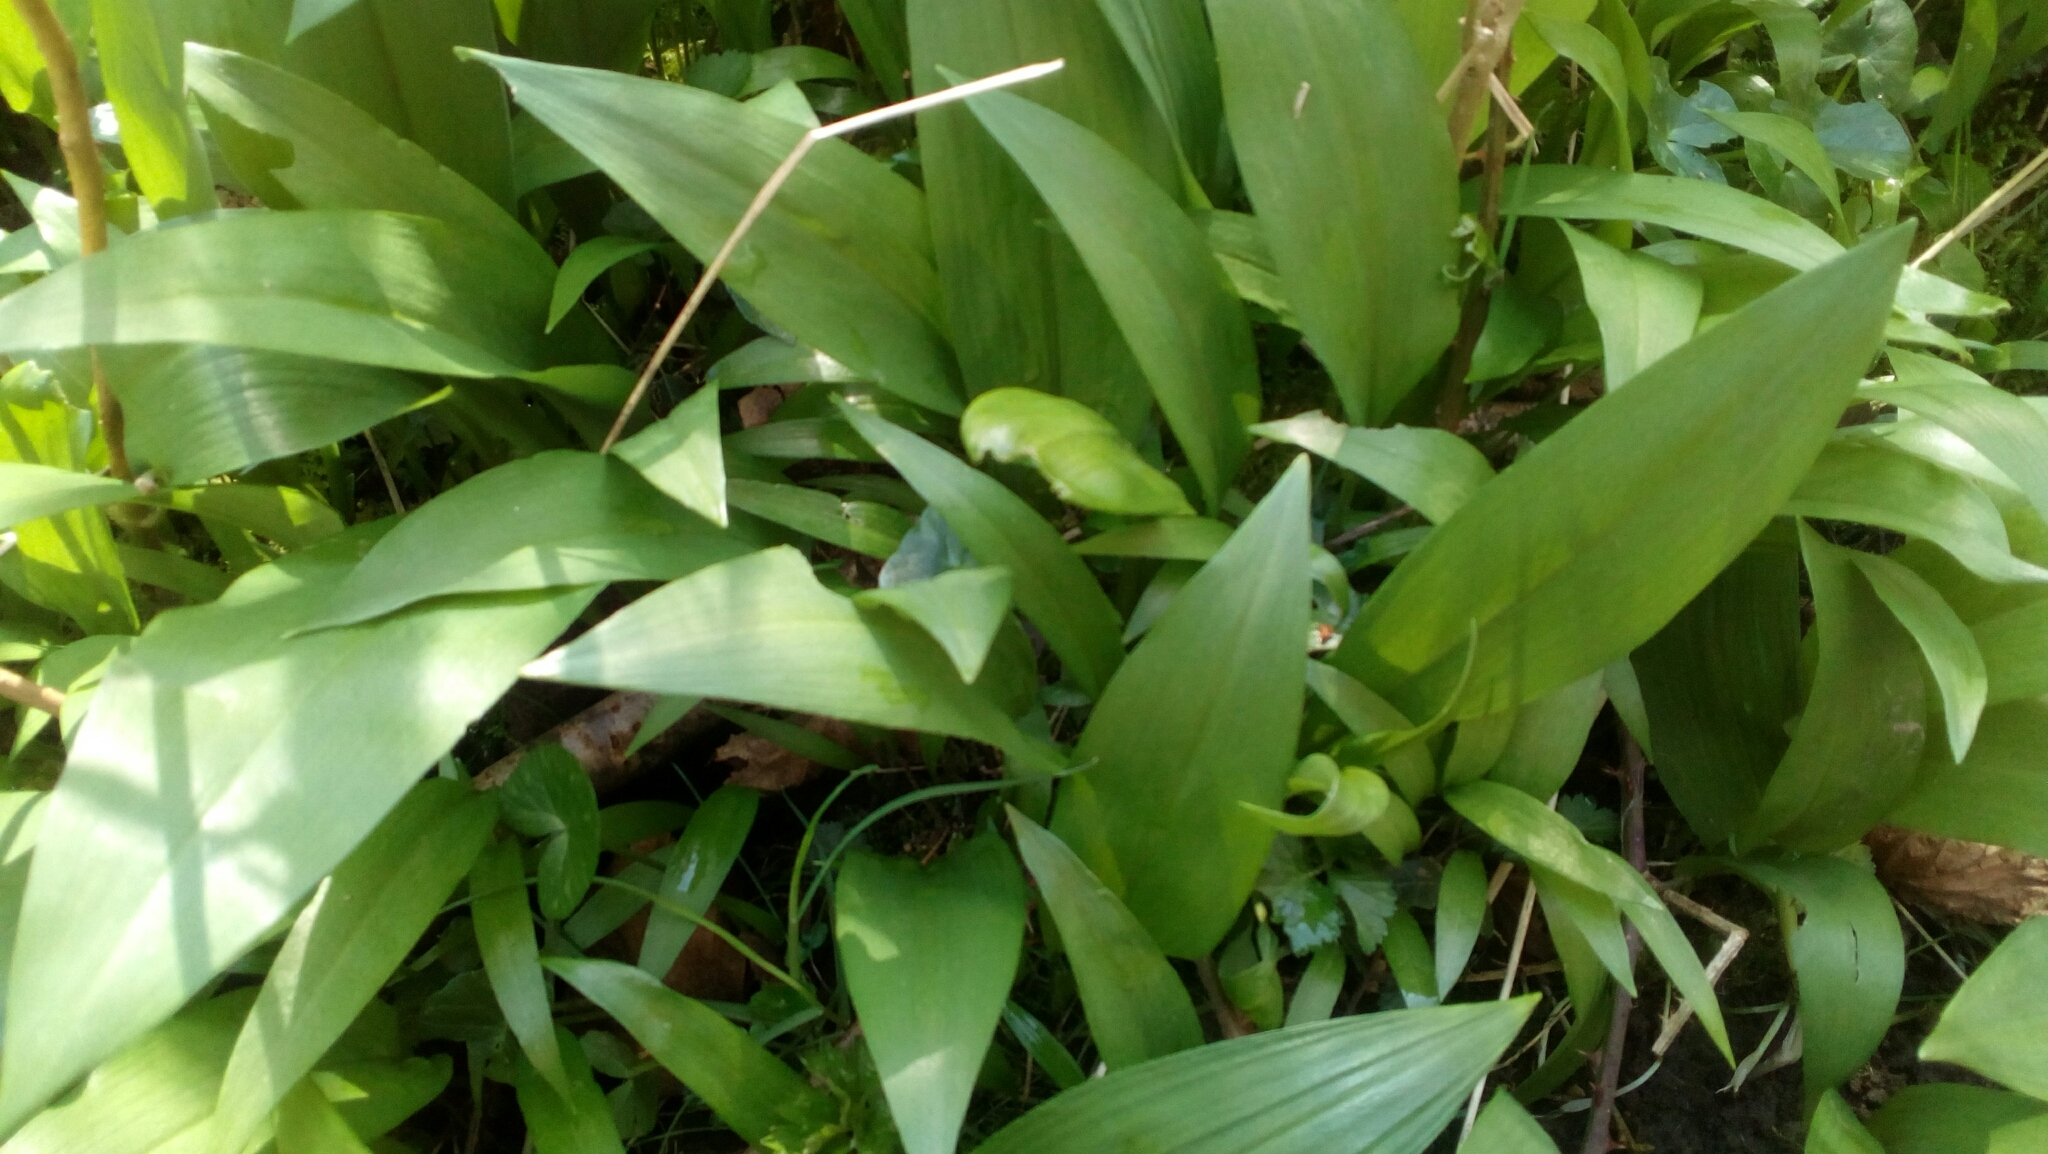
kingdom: Plantae
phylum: Tracheophyta
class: Liliopsida
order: Asparagales
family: Amaryllidaceae
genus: Allium
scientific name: Allium ursinum
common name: Ramsons
